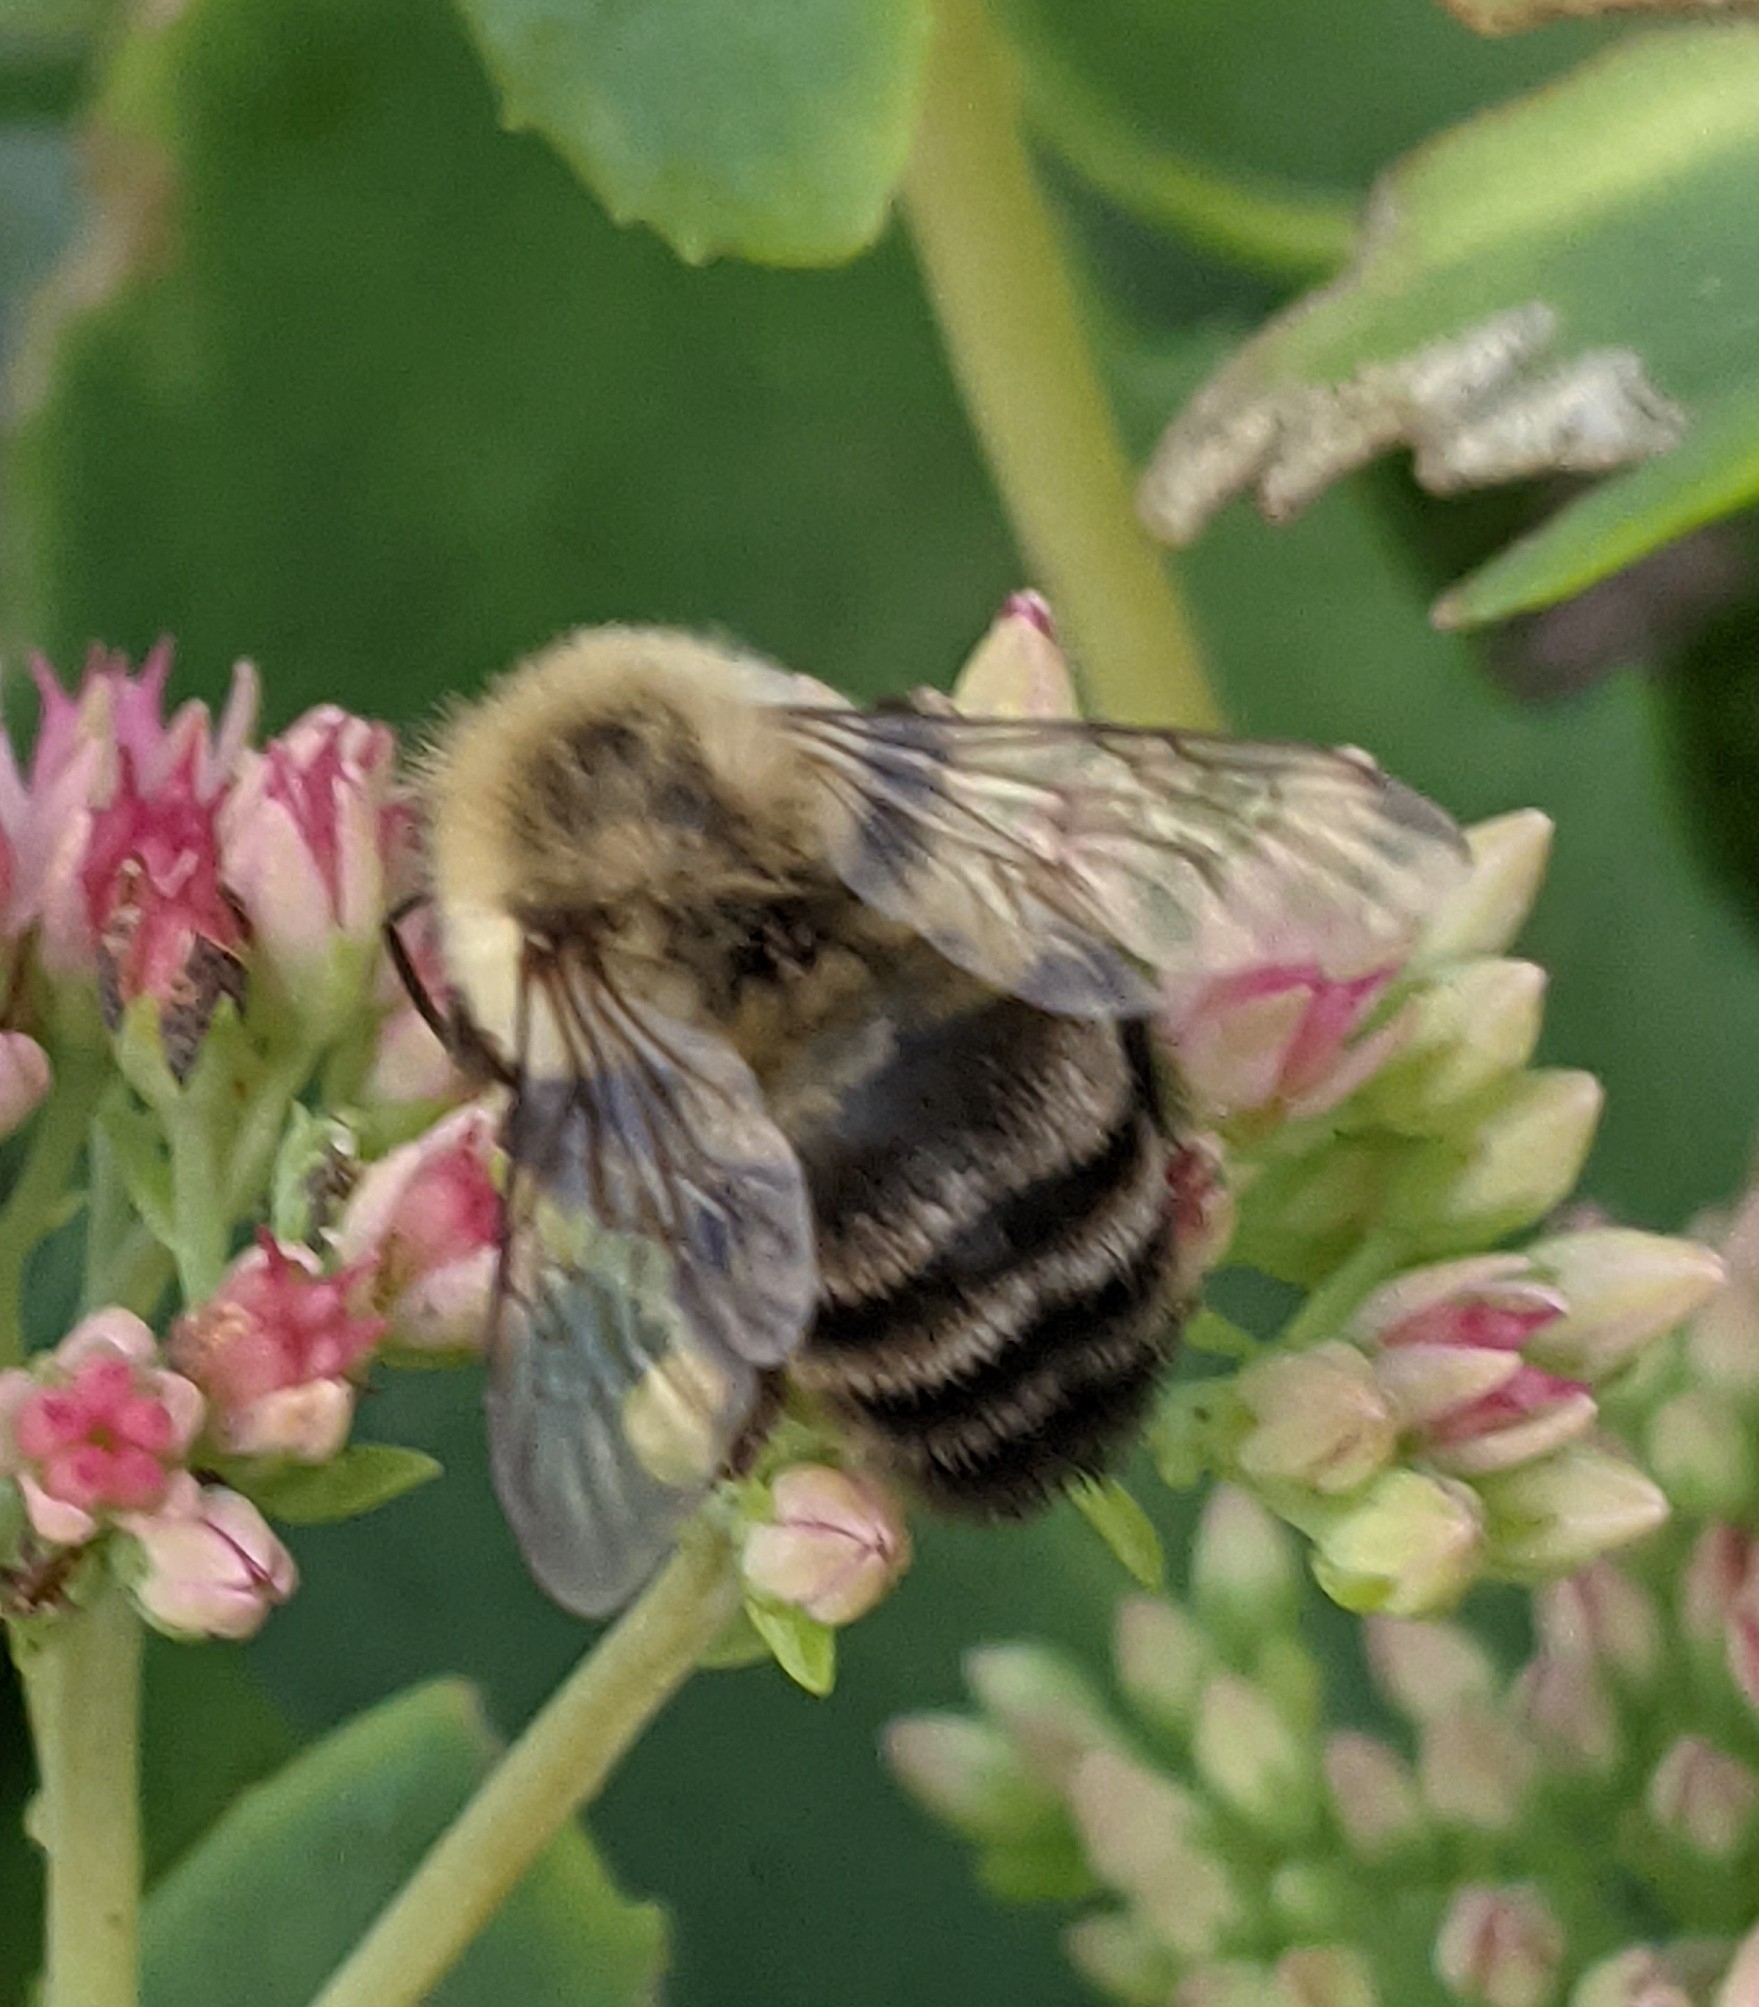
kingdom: Animalia
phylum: Arthropoda
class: Insecta
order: Hymenoptera
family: Apidae
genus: Bombus
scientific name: Bombus impatiens
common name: Common eastern bumble bee
